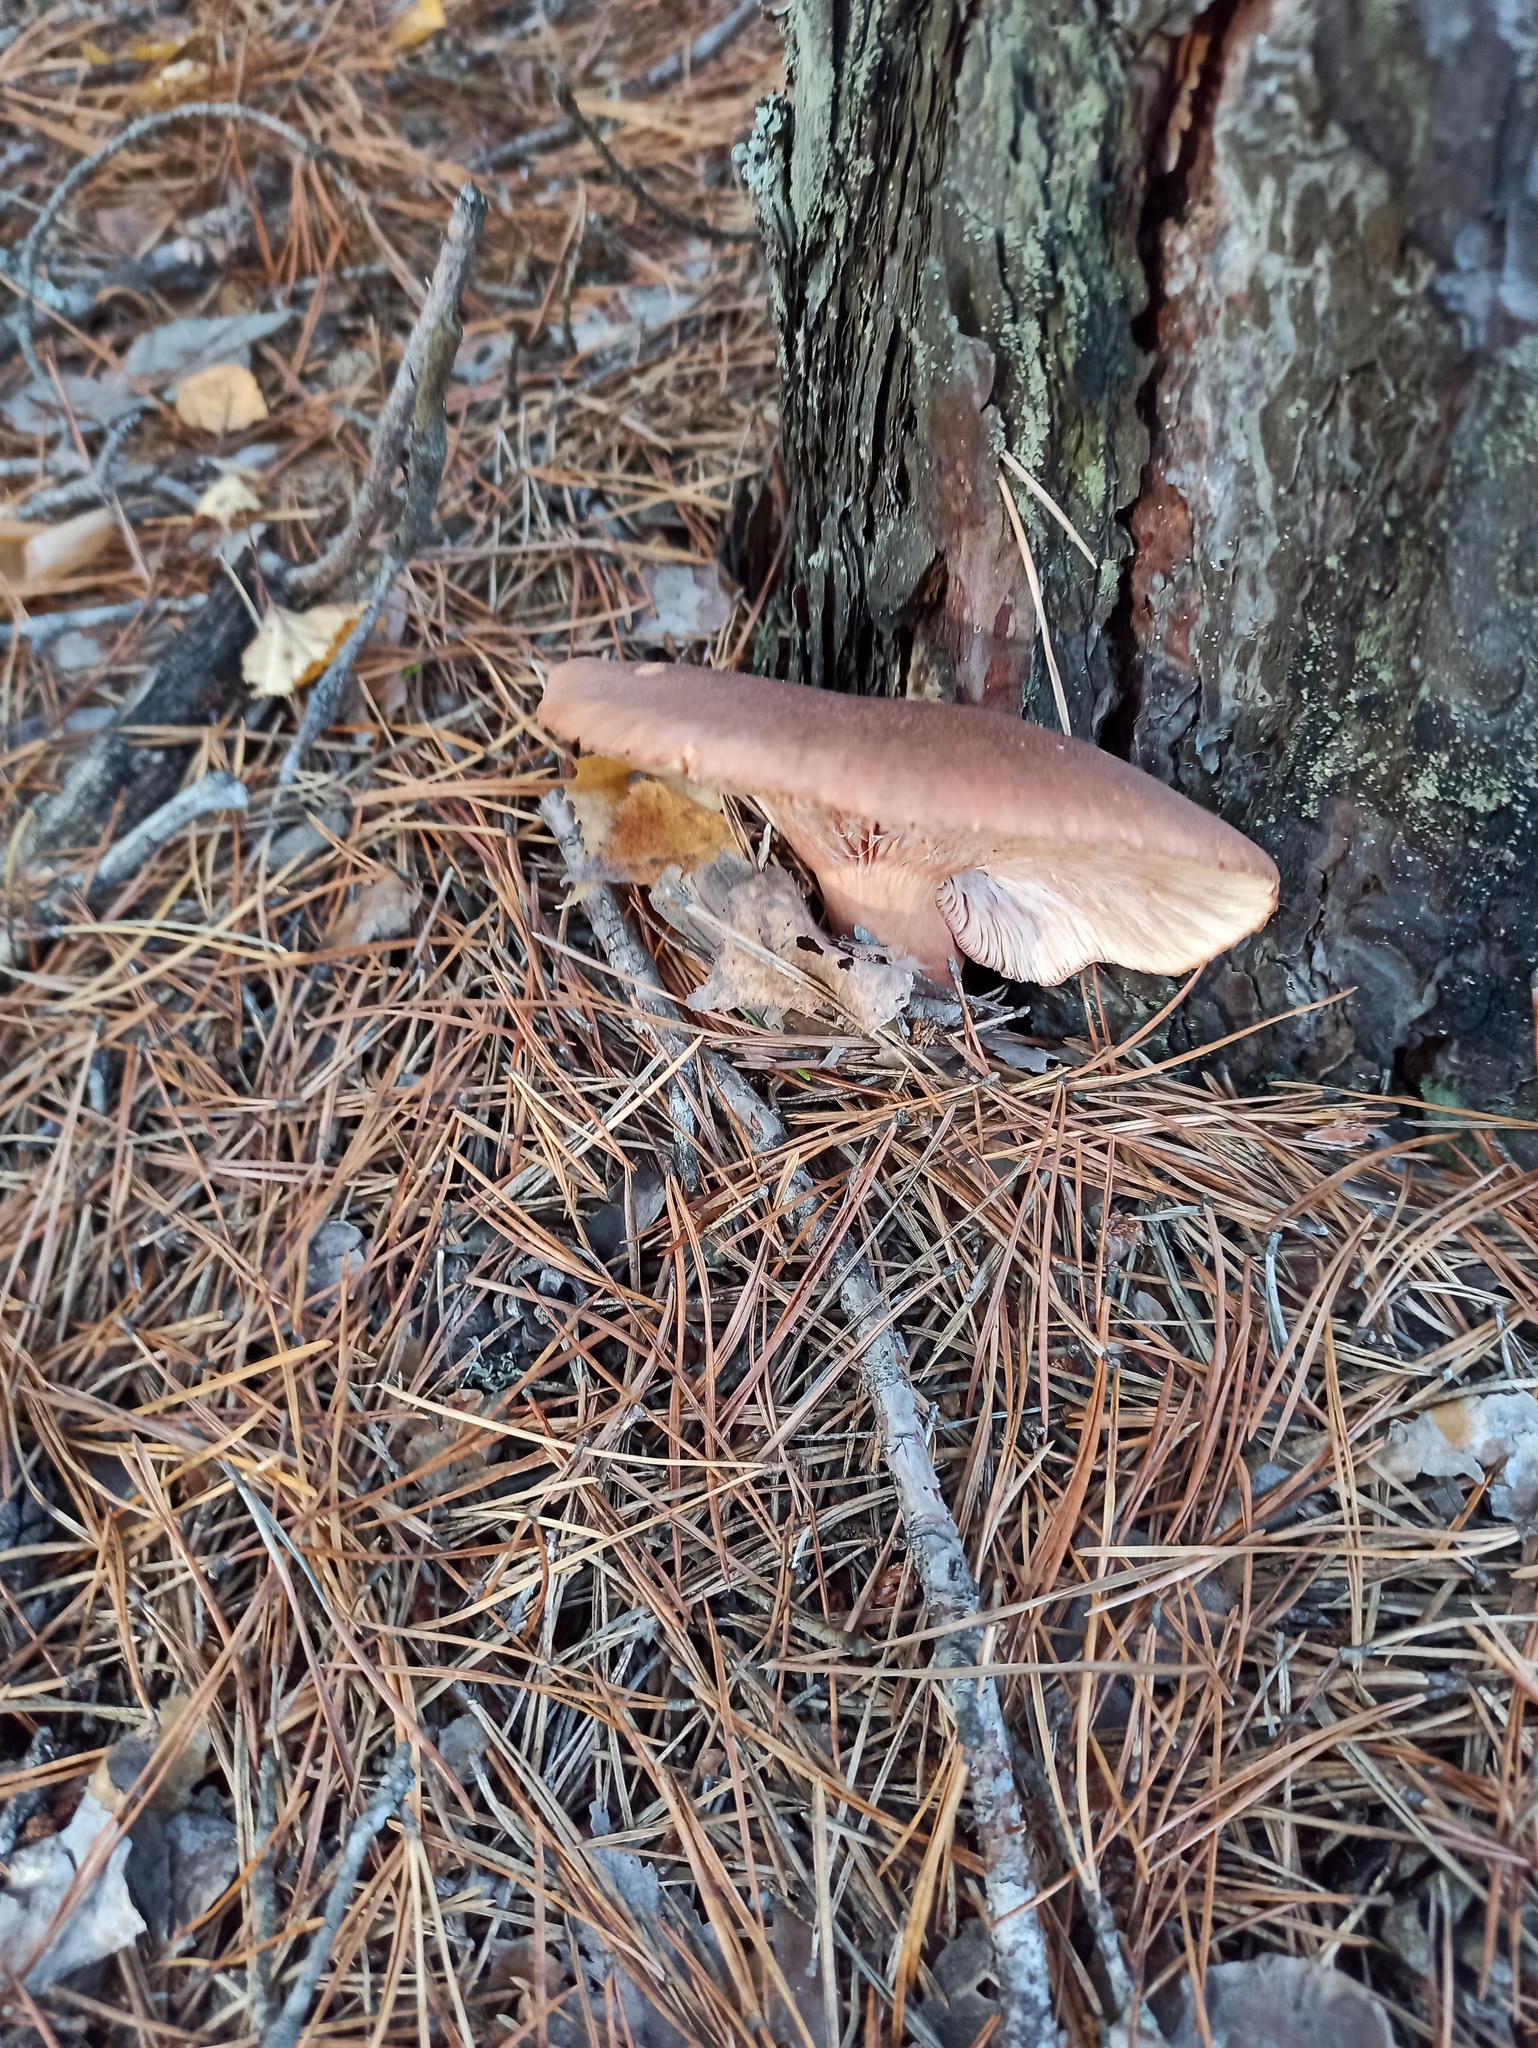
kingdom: Fungi
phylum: Basidiomycota
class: Agaricomycetes
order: Russulales
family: Russulaceae
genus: Lactarius
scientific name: Lactarius rufus
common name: Rufous milk-cap
